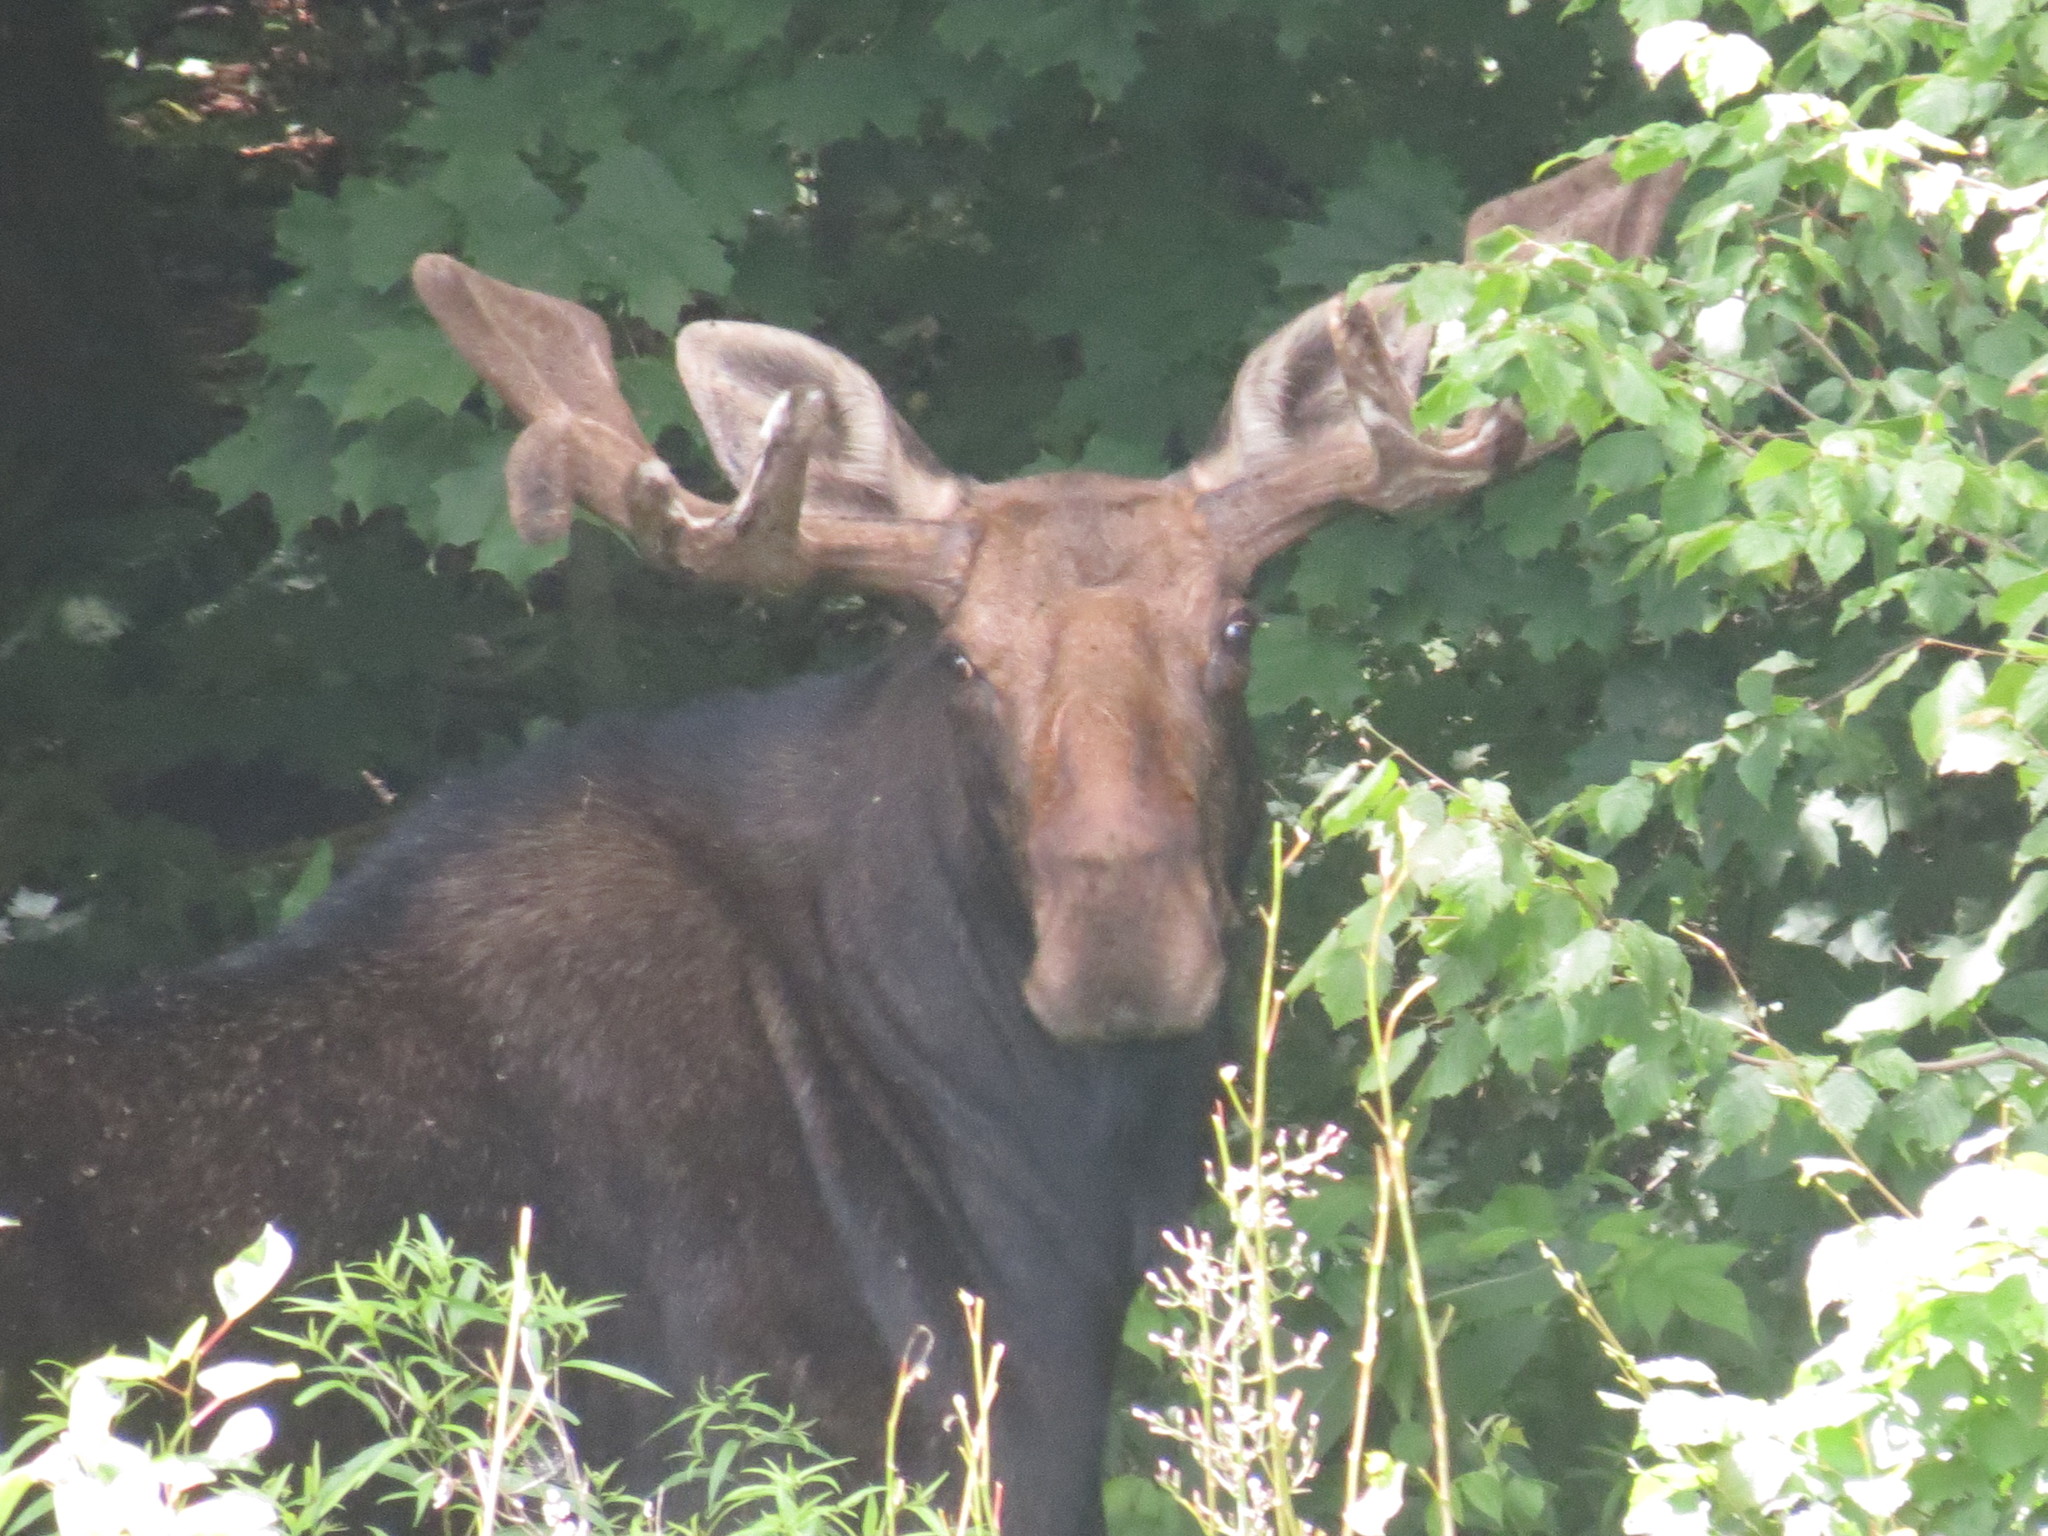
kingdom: Animalia
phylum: Chordata
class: Mammalia
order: Artiodactyla
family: Cervidae
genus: Alces
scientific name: Alces alces
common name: Moose
